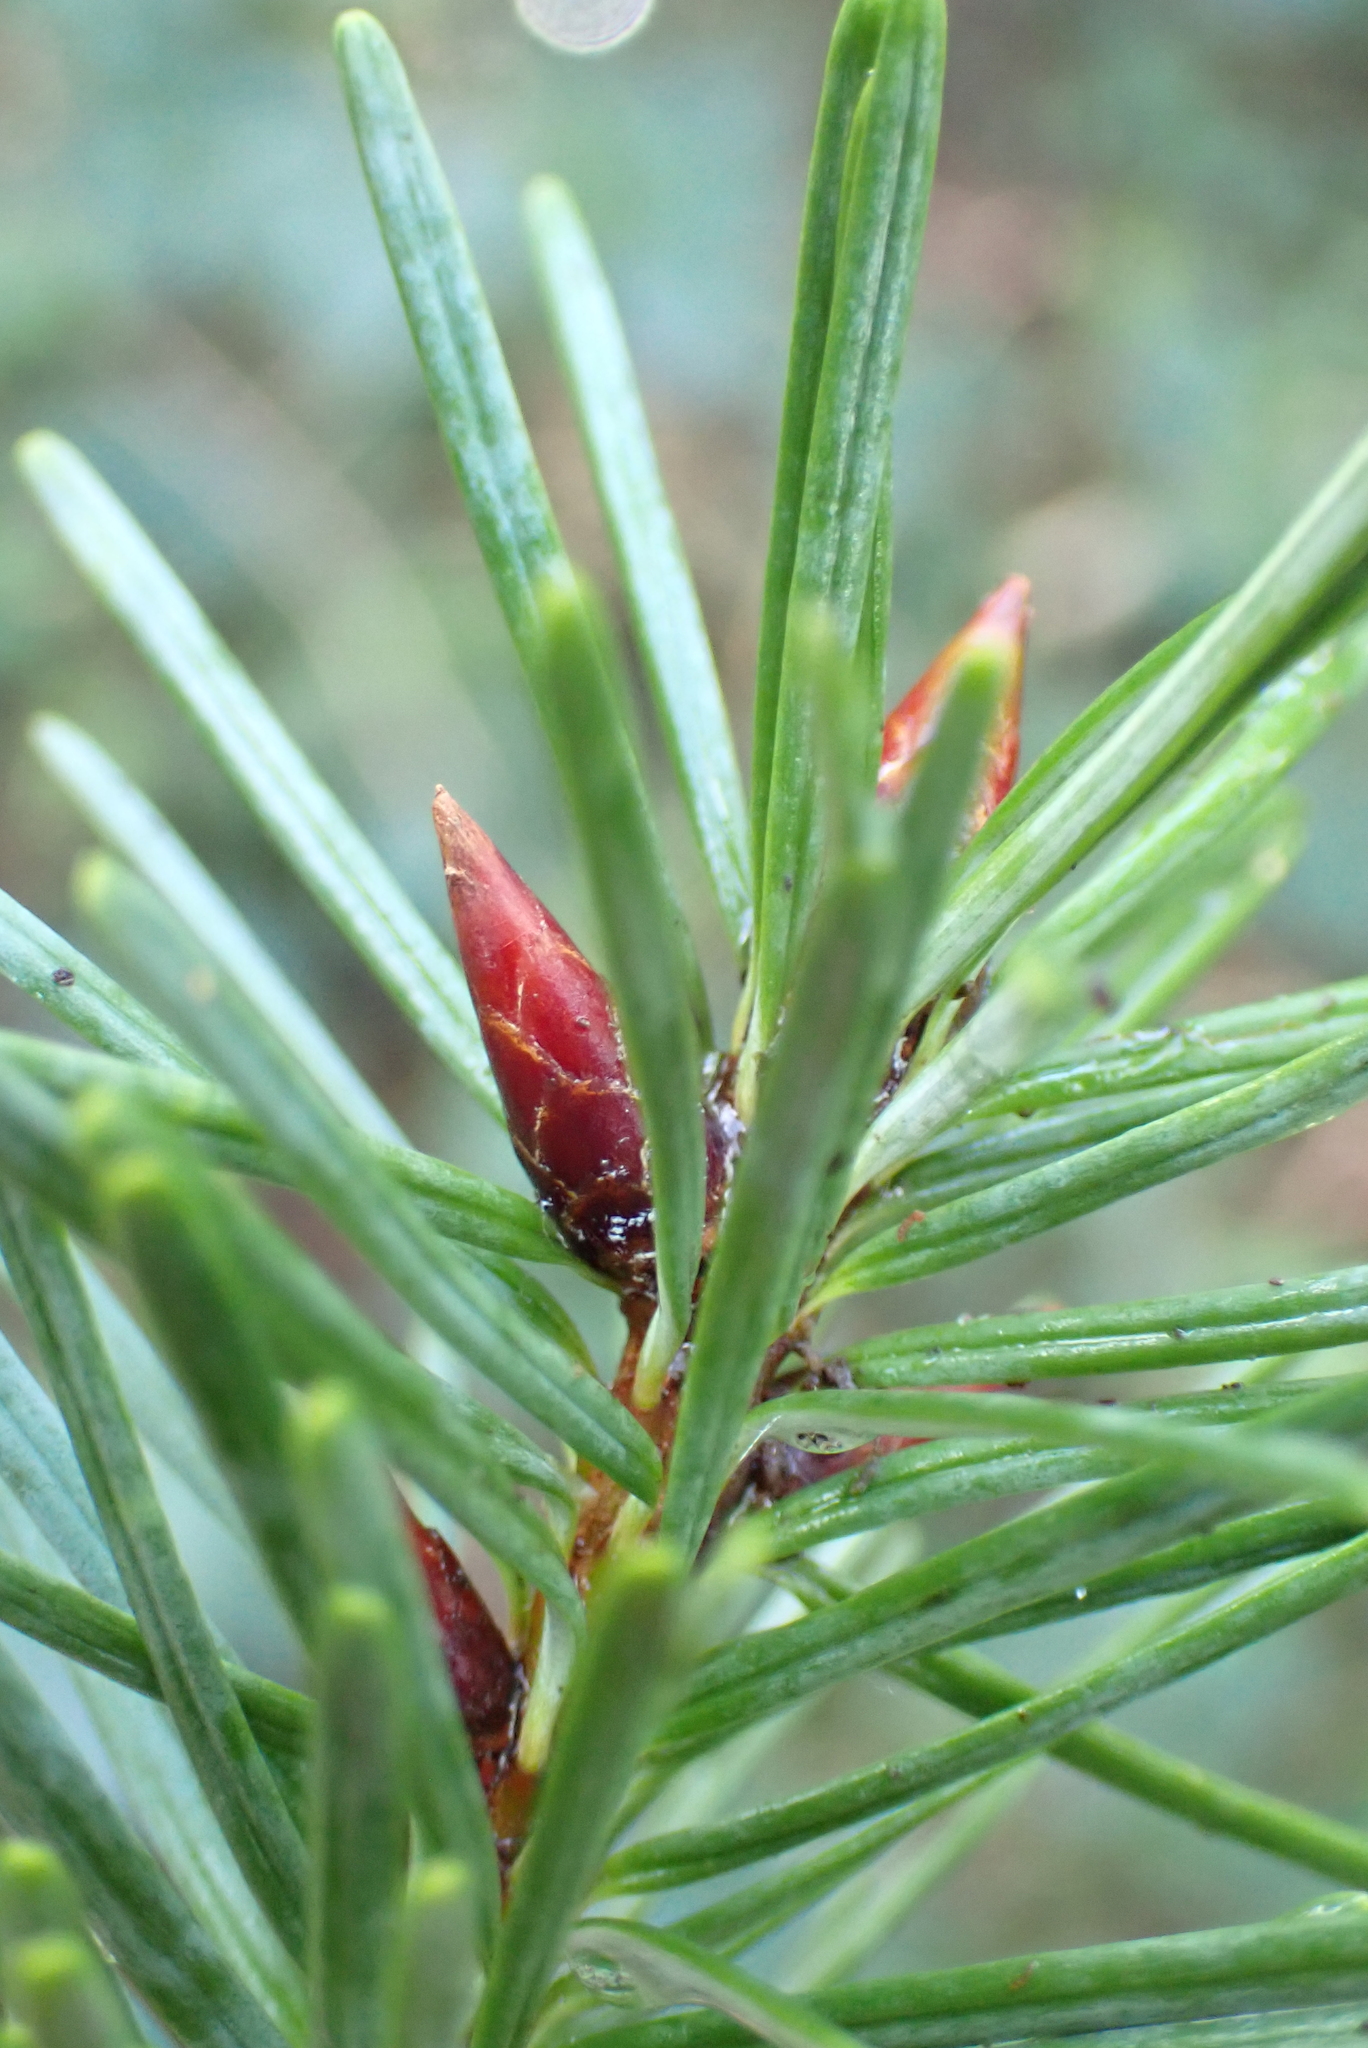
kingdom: Plantae
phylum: Tracheophyta
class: Pinopsida
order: Pinales
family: Pinaceae
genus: Pseudotsuga
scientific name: Pseudotsuga menziesii
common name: Douglas fir
